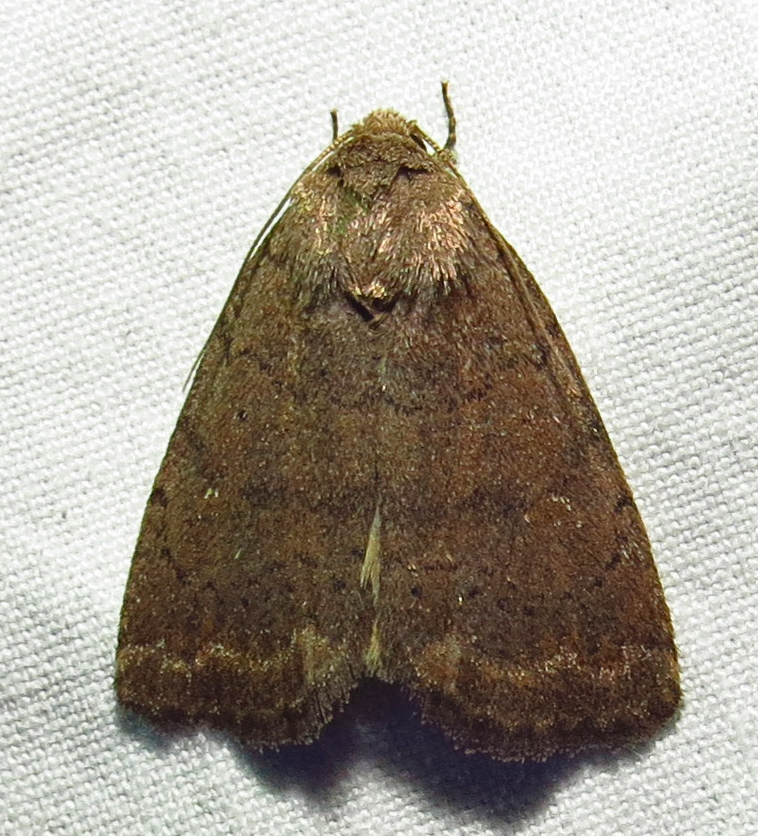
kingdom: Animalia
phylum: Arthropoda
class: Insecta
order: Lepidoptera
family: Noctuidae
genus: Athetis
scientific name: Athetis tarda
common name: Slowpoke moth
